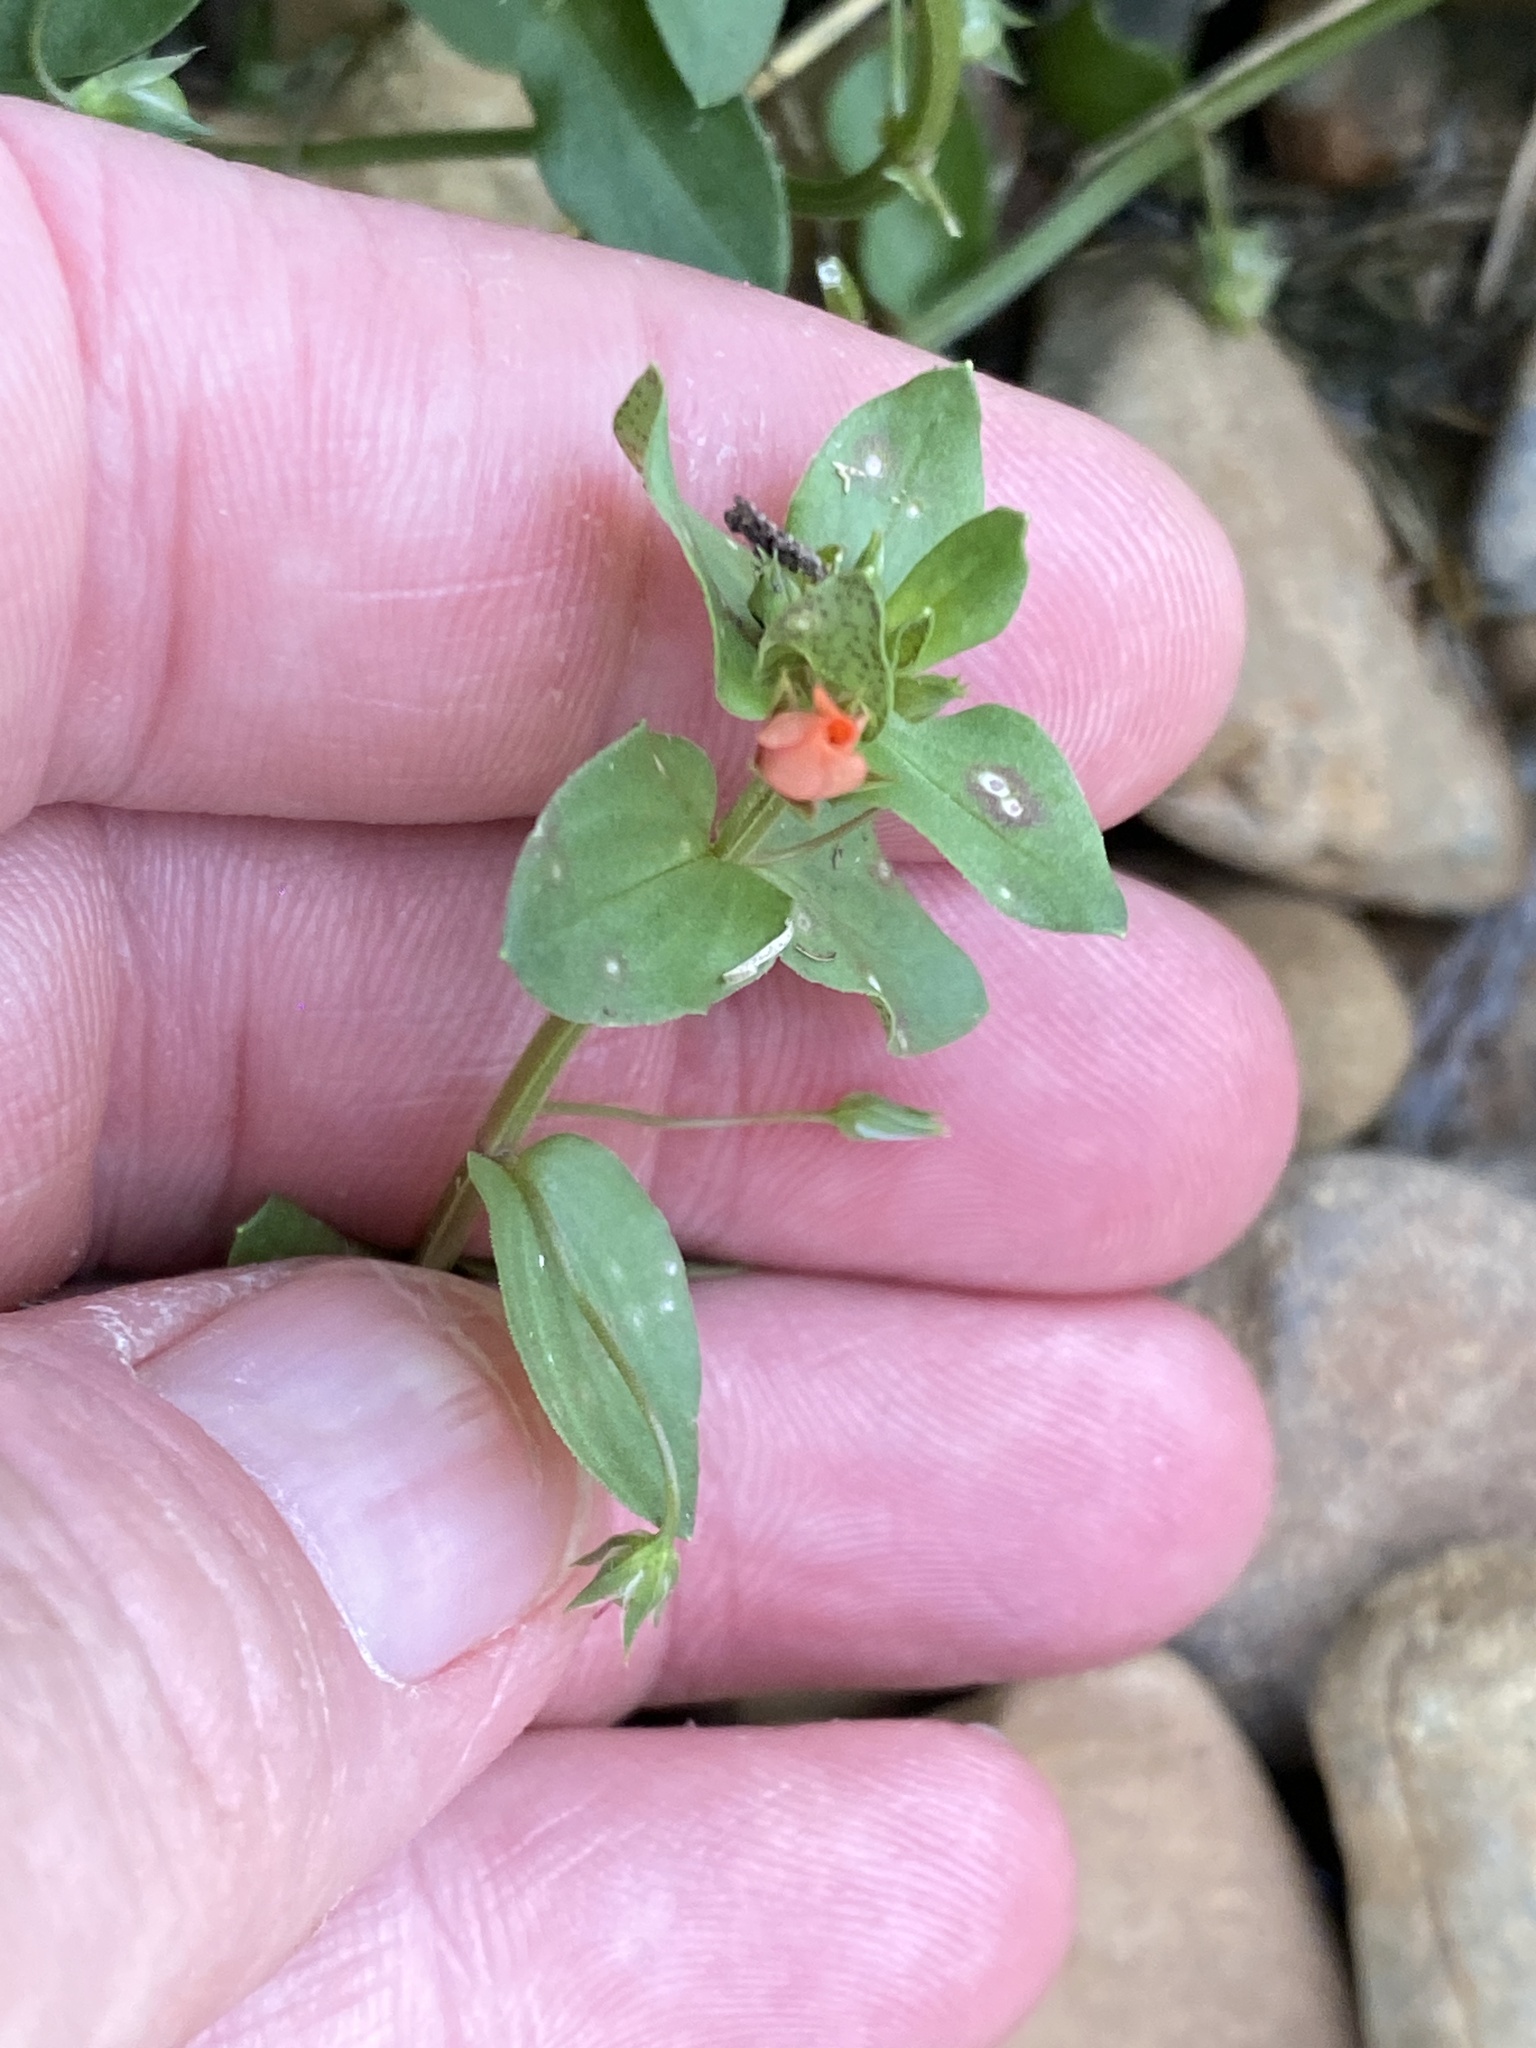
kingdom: Plantae
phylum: Tracheophyta
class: Magnoliopsida
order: Ericales
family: Primulaceae
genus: Lysimachia
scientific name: Lysimachia arvensis
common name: Scarlet pimpernel
